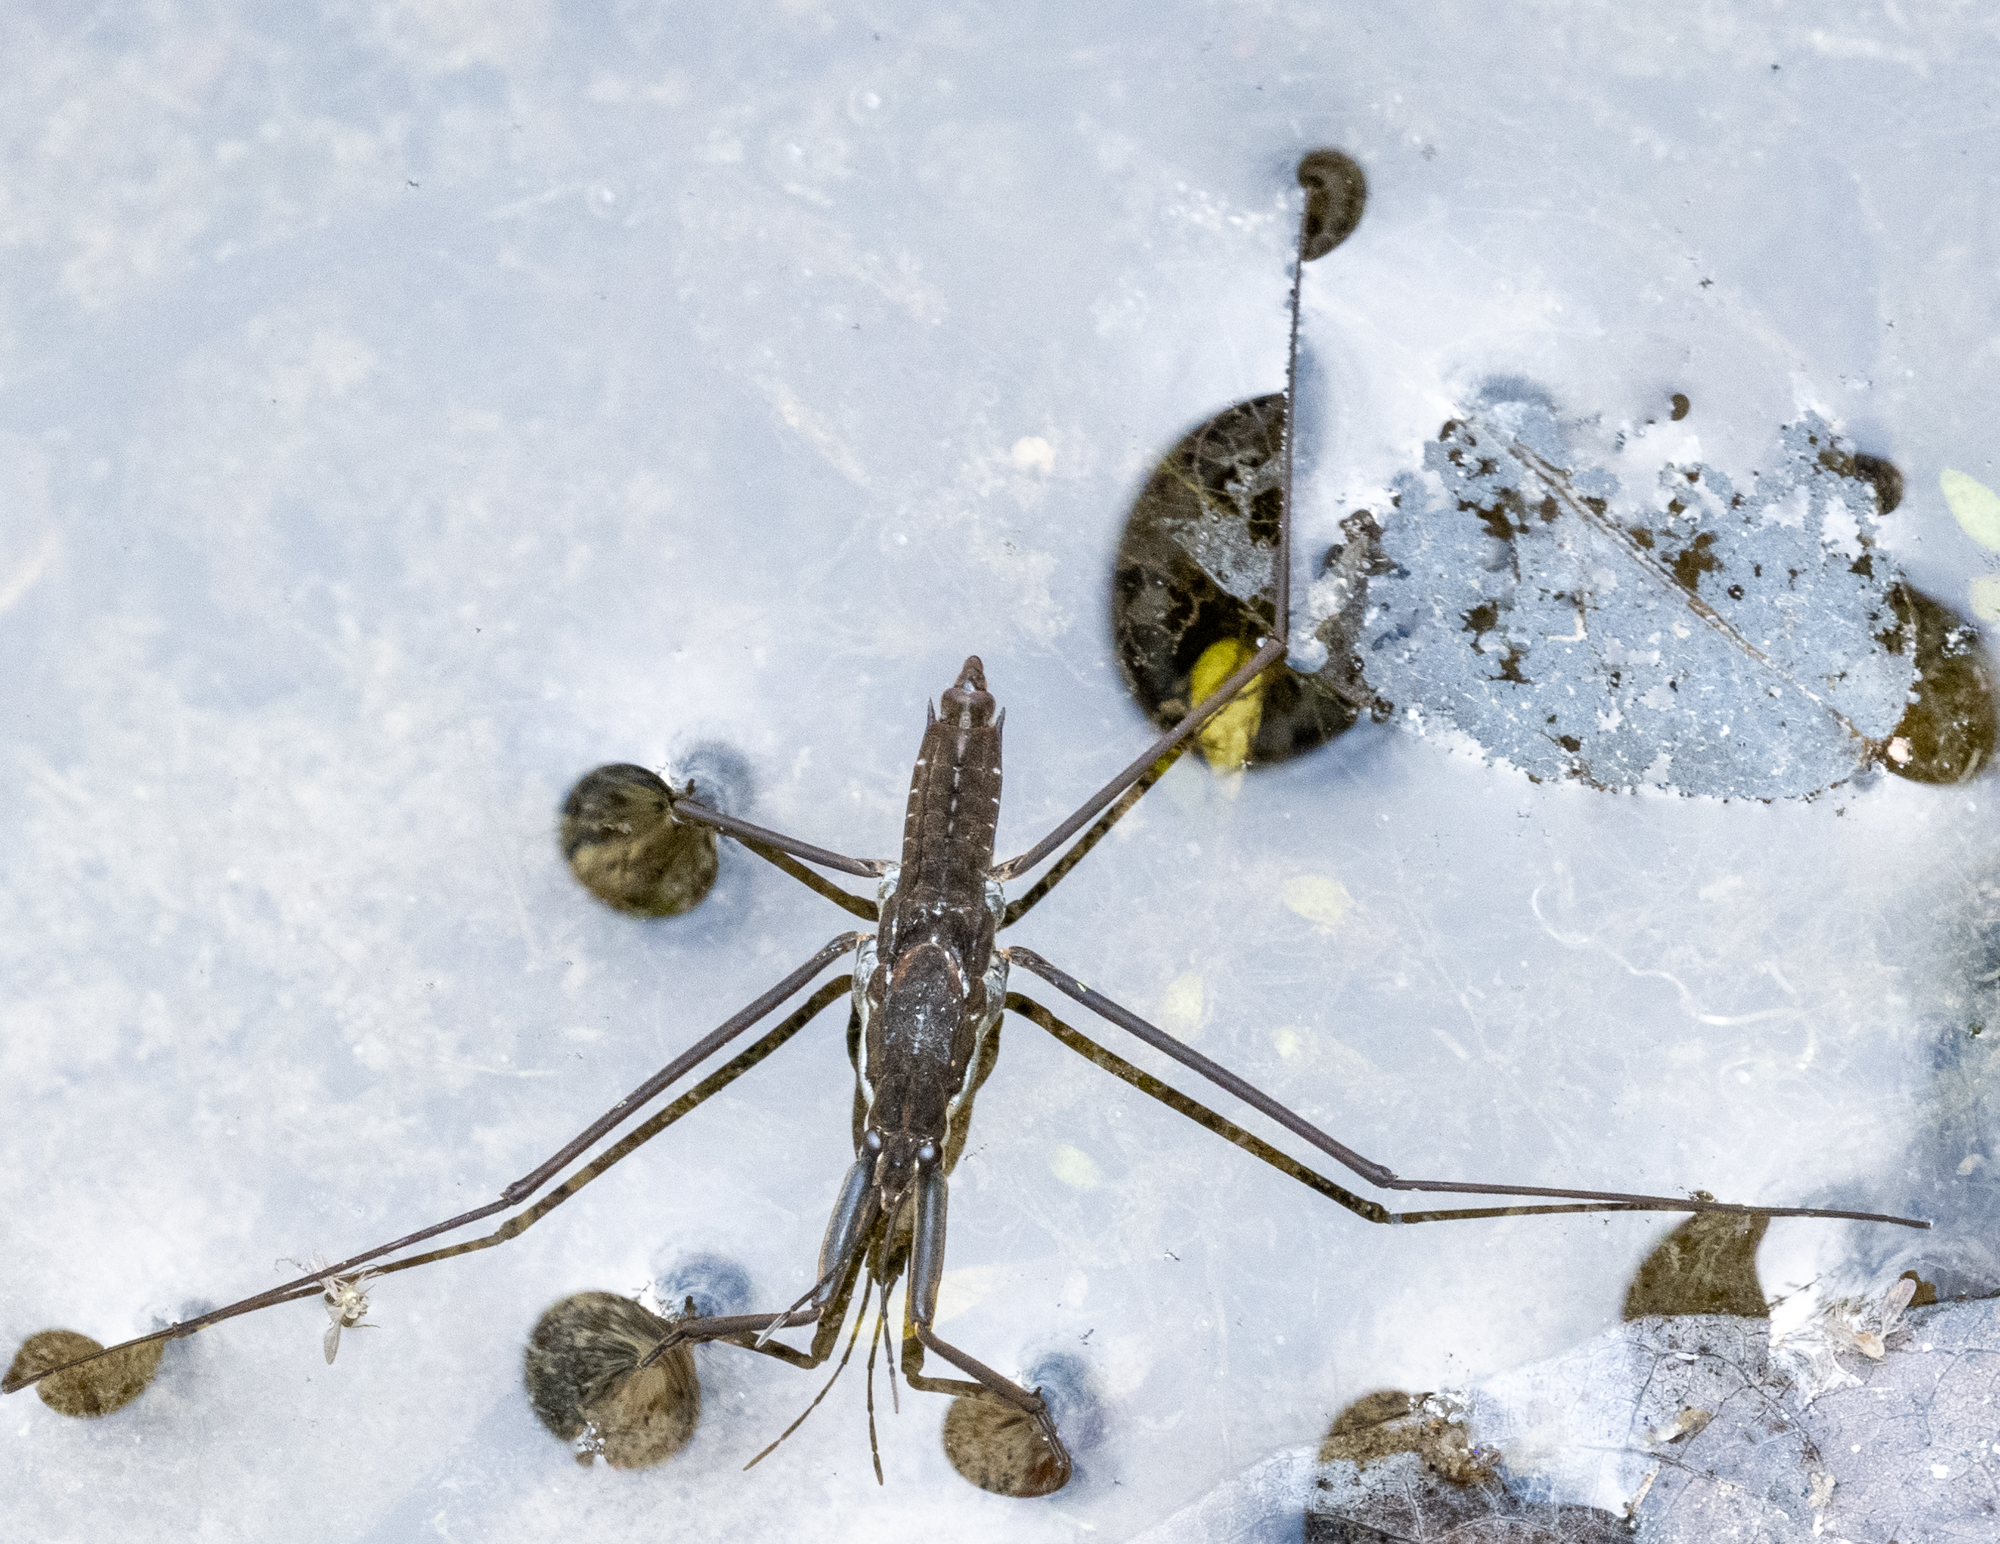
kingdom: Animalia
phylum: Arthropoda
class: Insecta
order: Hemiptera
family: Gerridae
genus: Aquarius
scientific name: Aquarius remigis
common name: Common water strider
